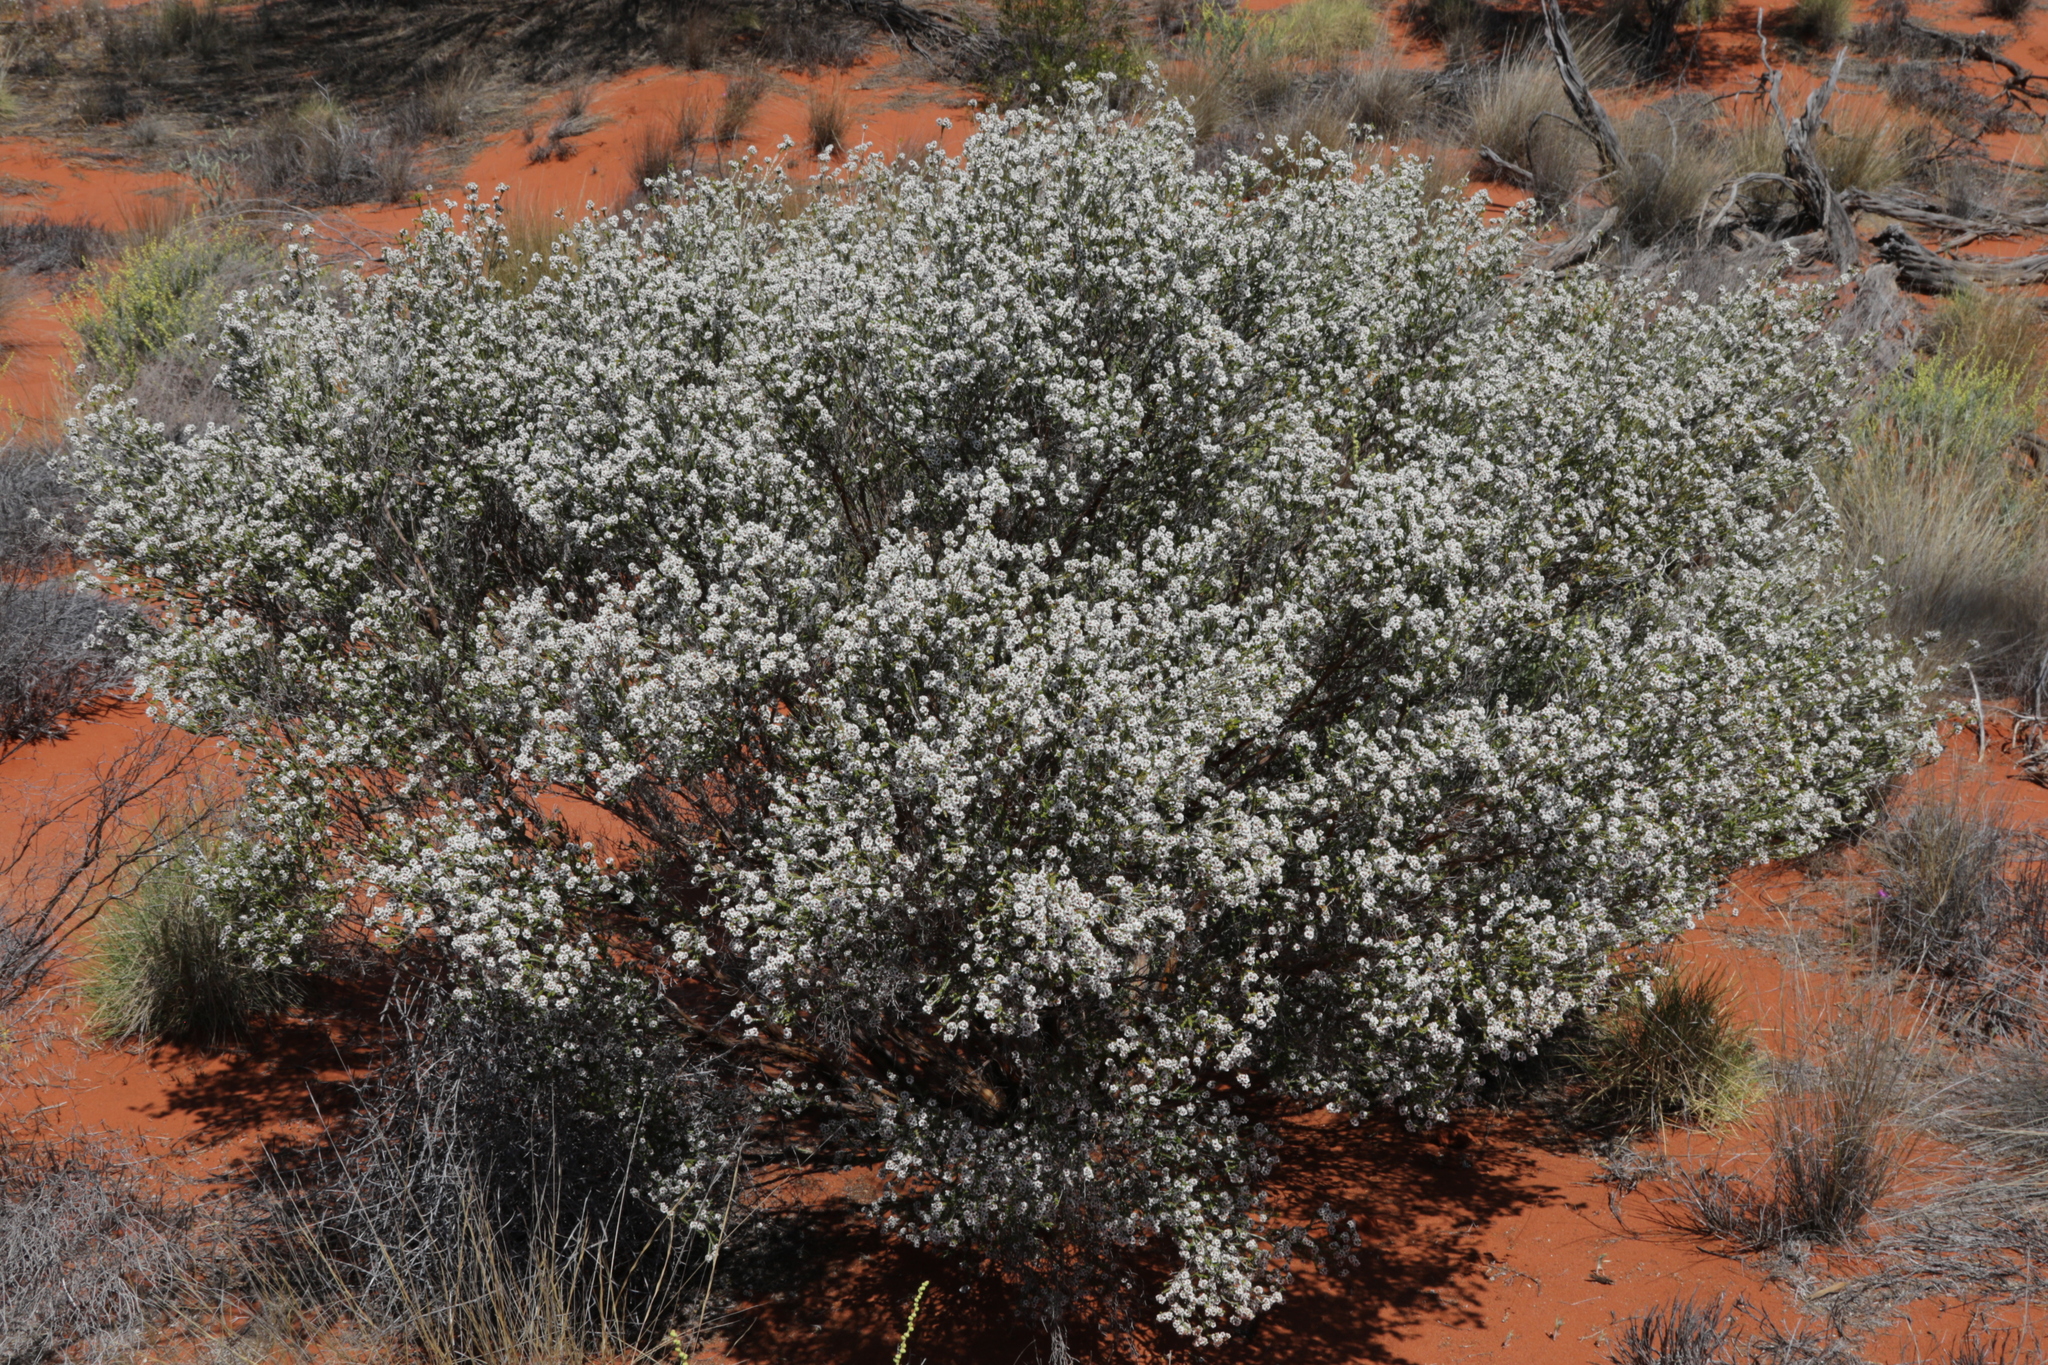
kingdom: Plantae
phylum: Tracheophyta
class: Magnoliopsida
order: Myrtales
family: Myrtaceae
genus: Aluta
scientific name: Aluta maisonneuvei
